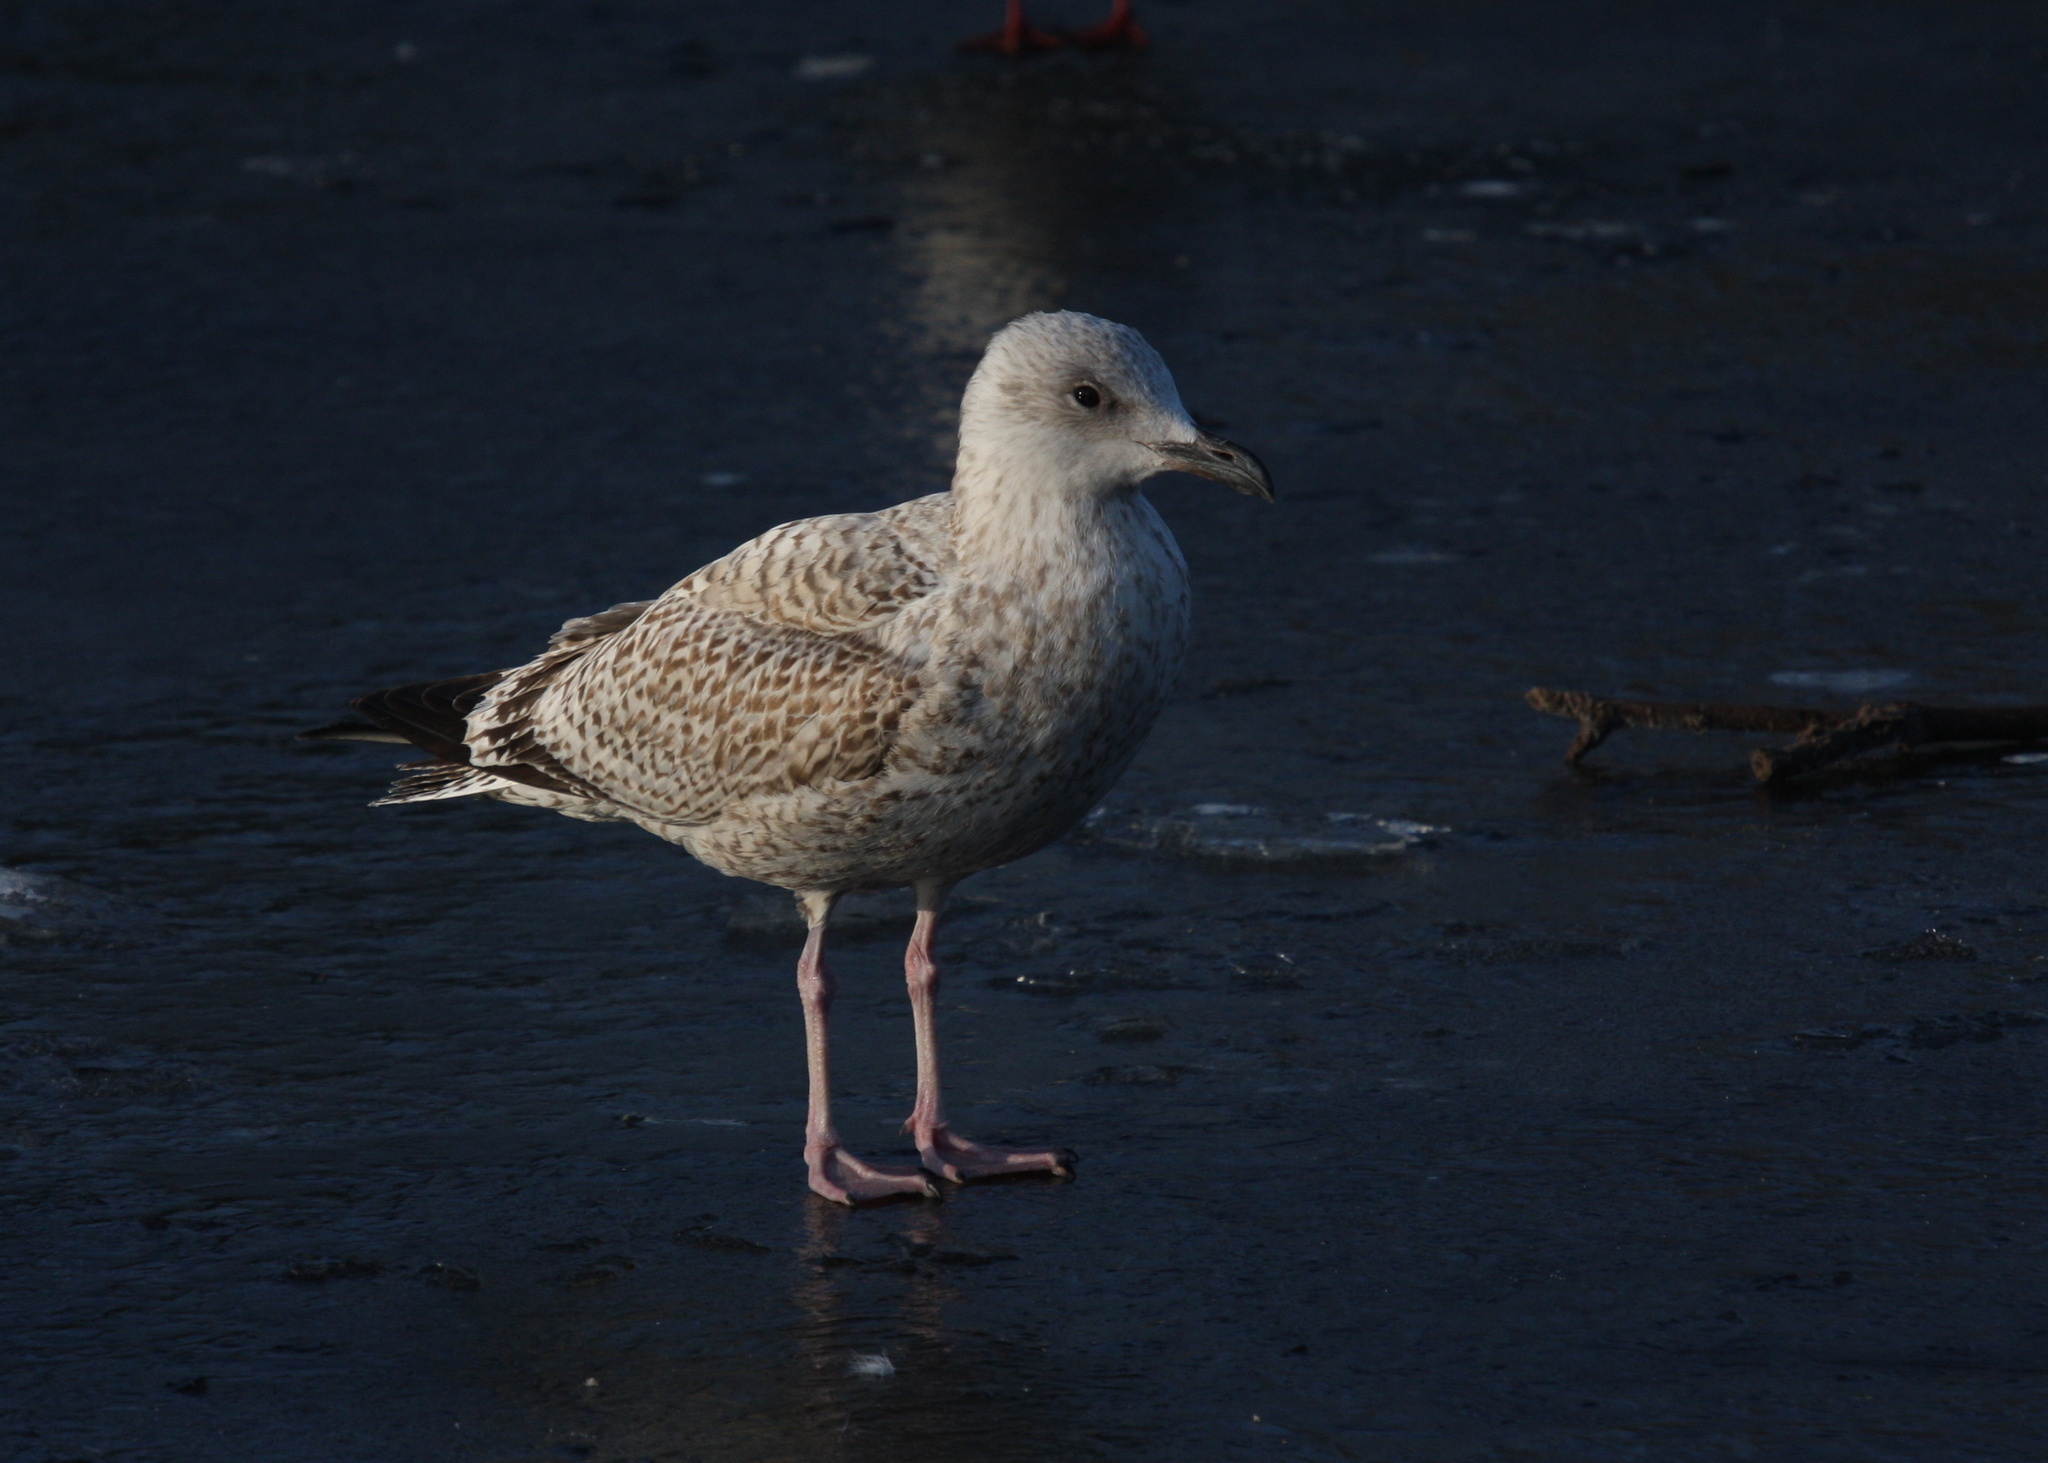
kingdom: Animalia
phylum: Chordata
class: Aves
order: Charadriiformes
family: Laridae
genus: Larus
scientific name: Larus argentatus
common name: Herring gull
